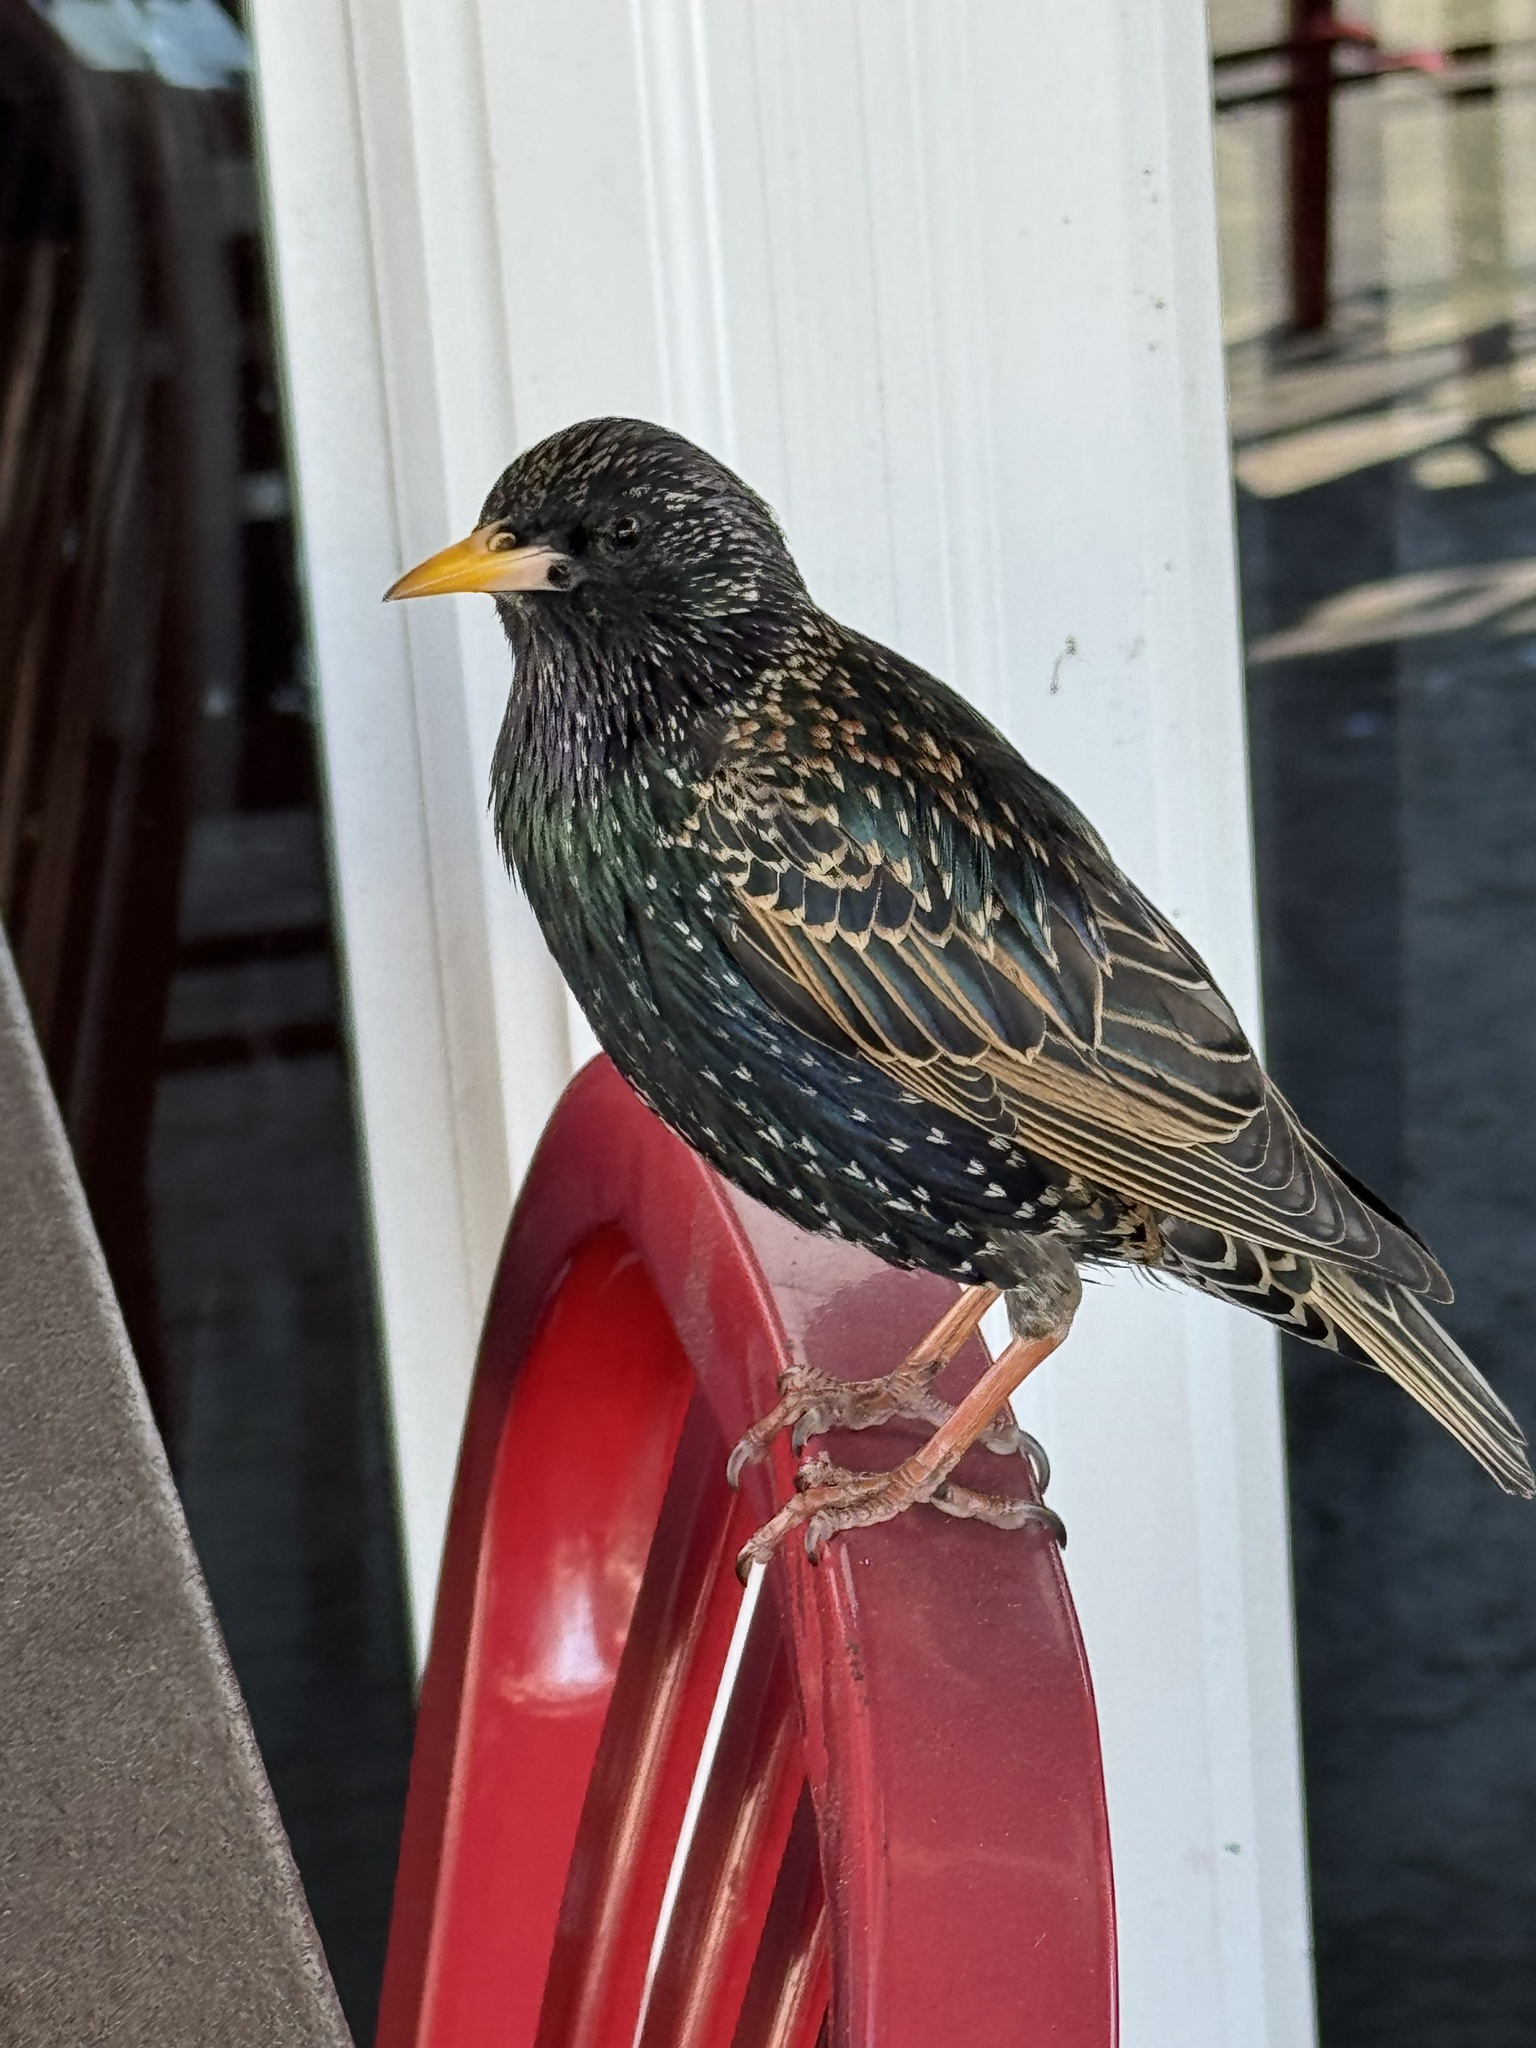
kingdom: Animalia
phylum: Chordata
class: Aves
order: Passeriformes
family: Sturnidae
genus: Sturnus
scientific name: Sturnus vulgaris
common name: Common starling
